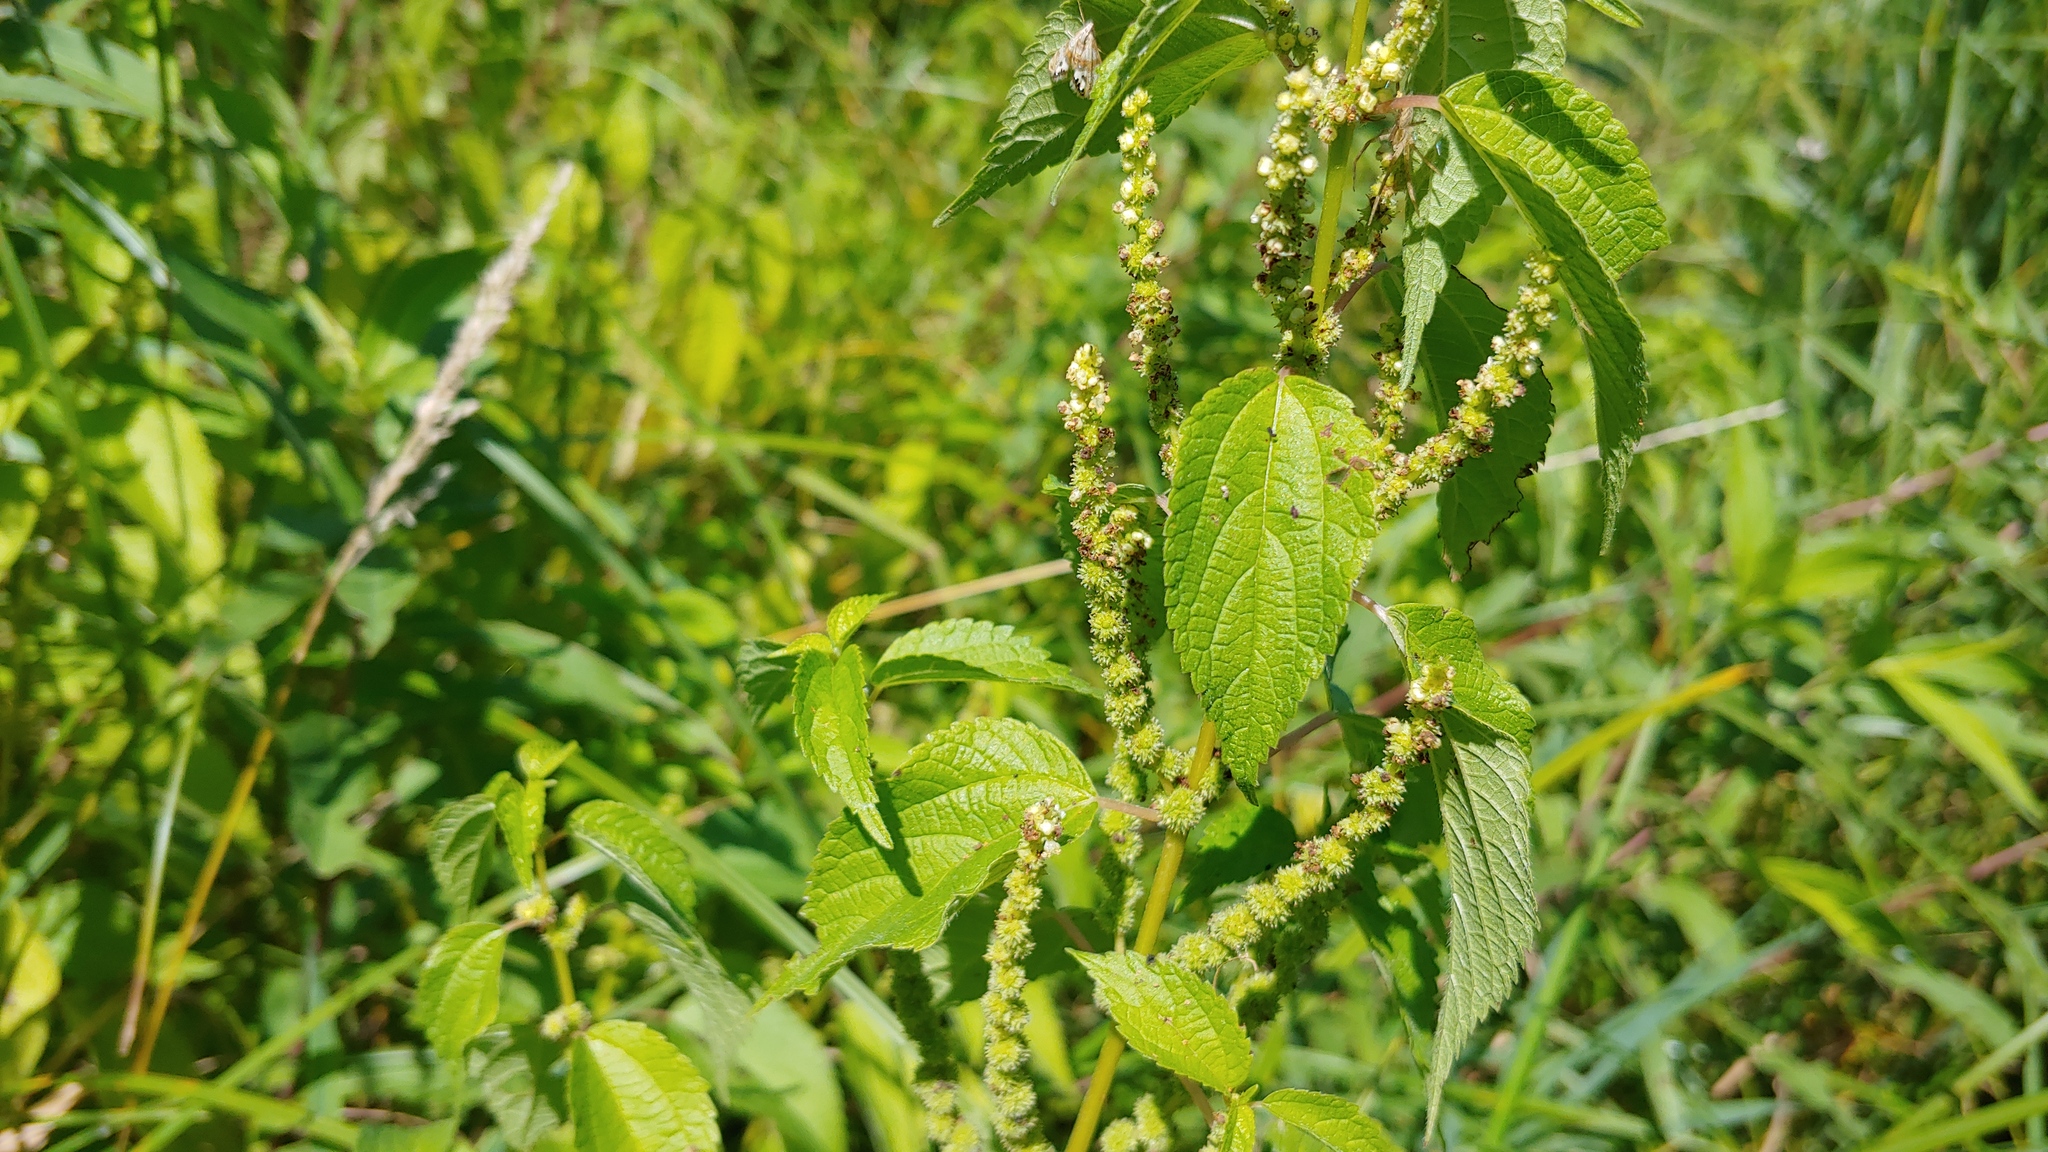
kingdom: Plantae
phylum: Tracheophyta
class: Magnoliopsida
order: Rosales
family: Urticaceae
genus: Boehmeria
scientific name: Boehmeria cylindrica
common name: Bog-hemp
